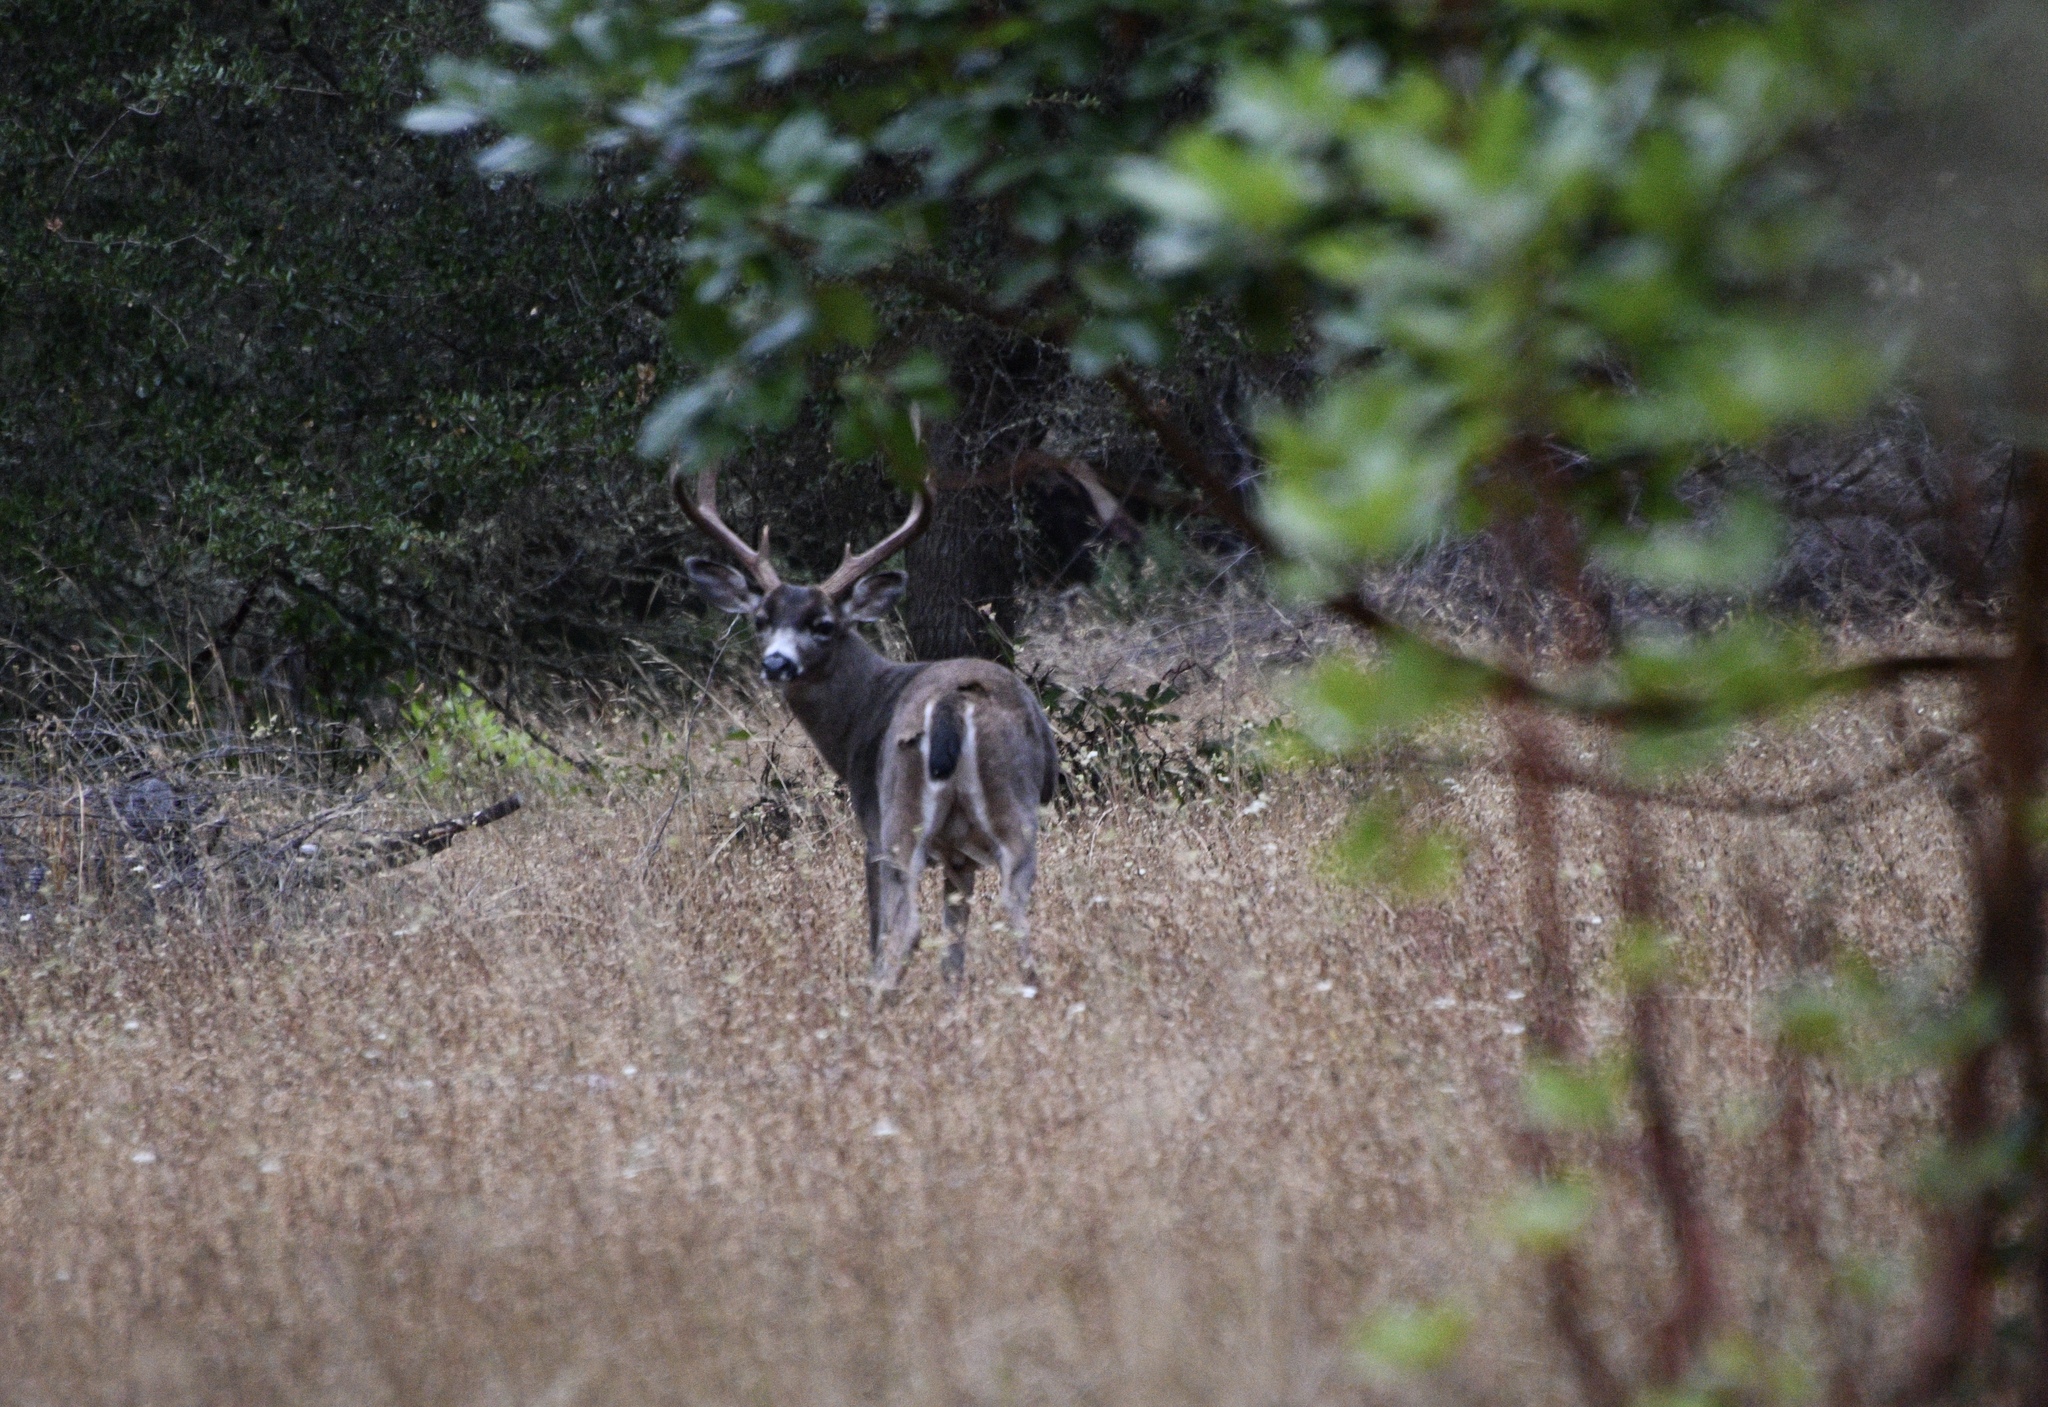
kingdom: Animalia
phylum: Chordata
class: Mammalia
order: Artiodactyla
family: Cervidae
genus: Odocoileus
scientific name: Odocoileus hemionus
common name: Mule deer
